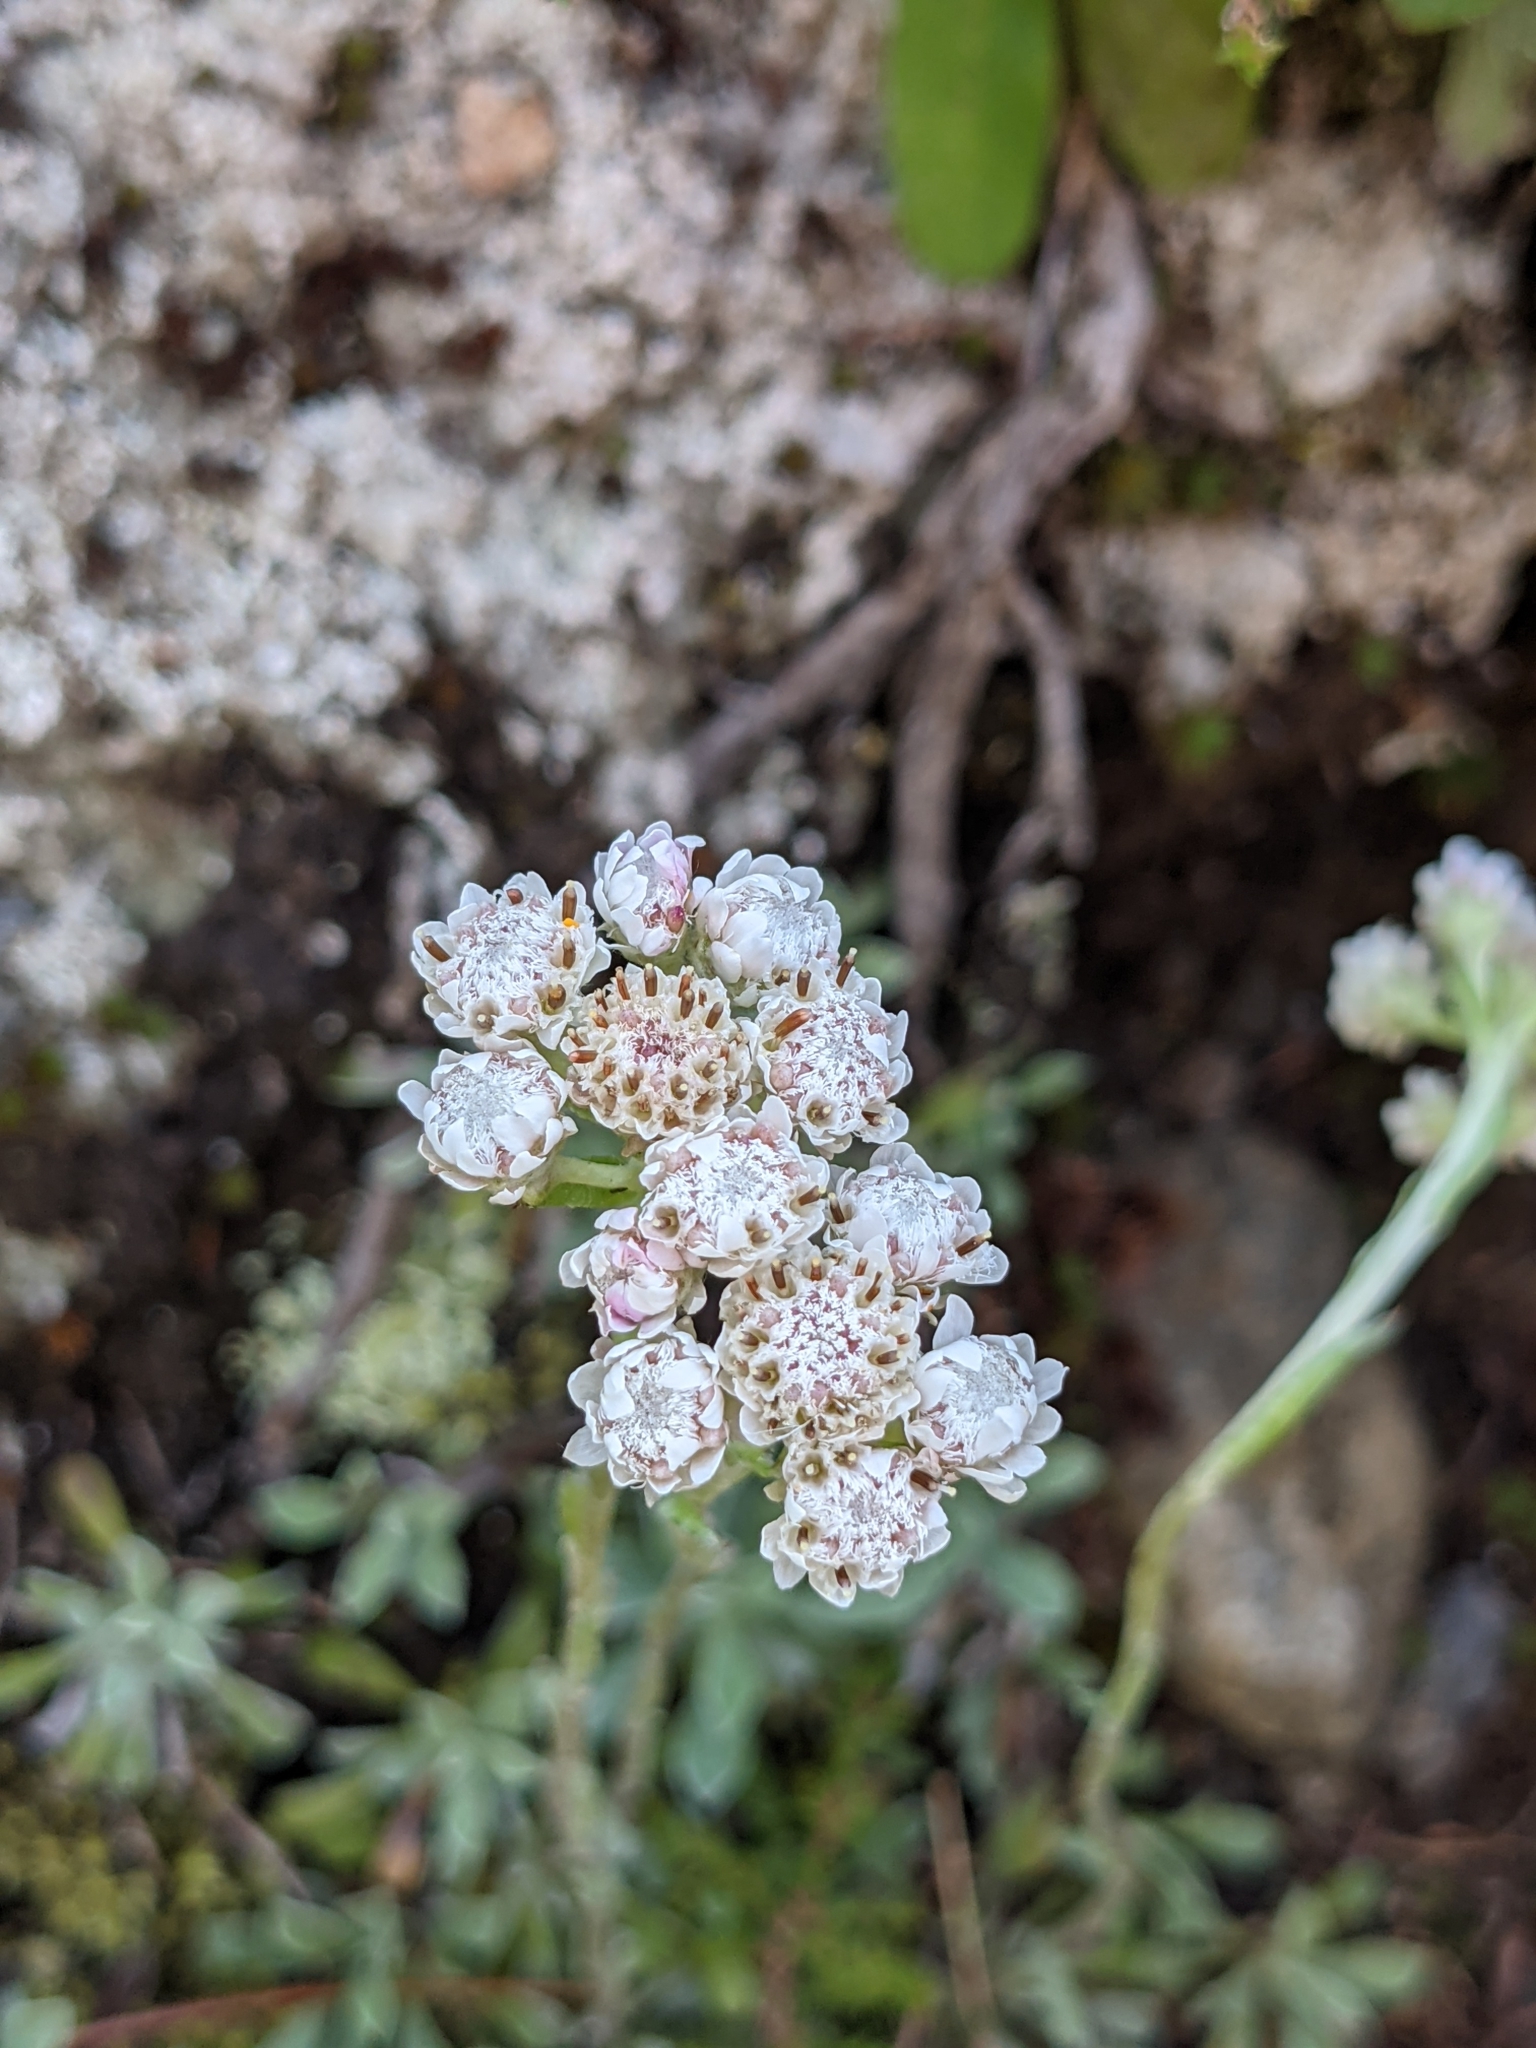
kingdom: Plantae
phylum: Tracheophyta
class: Magnoliopsida
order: Asterales
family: Asteraceae
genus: Antennaria
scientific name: Antennaria dioica
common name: Mountain everlasting
